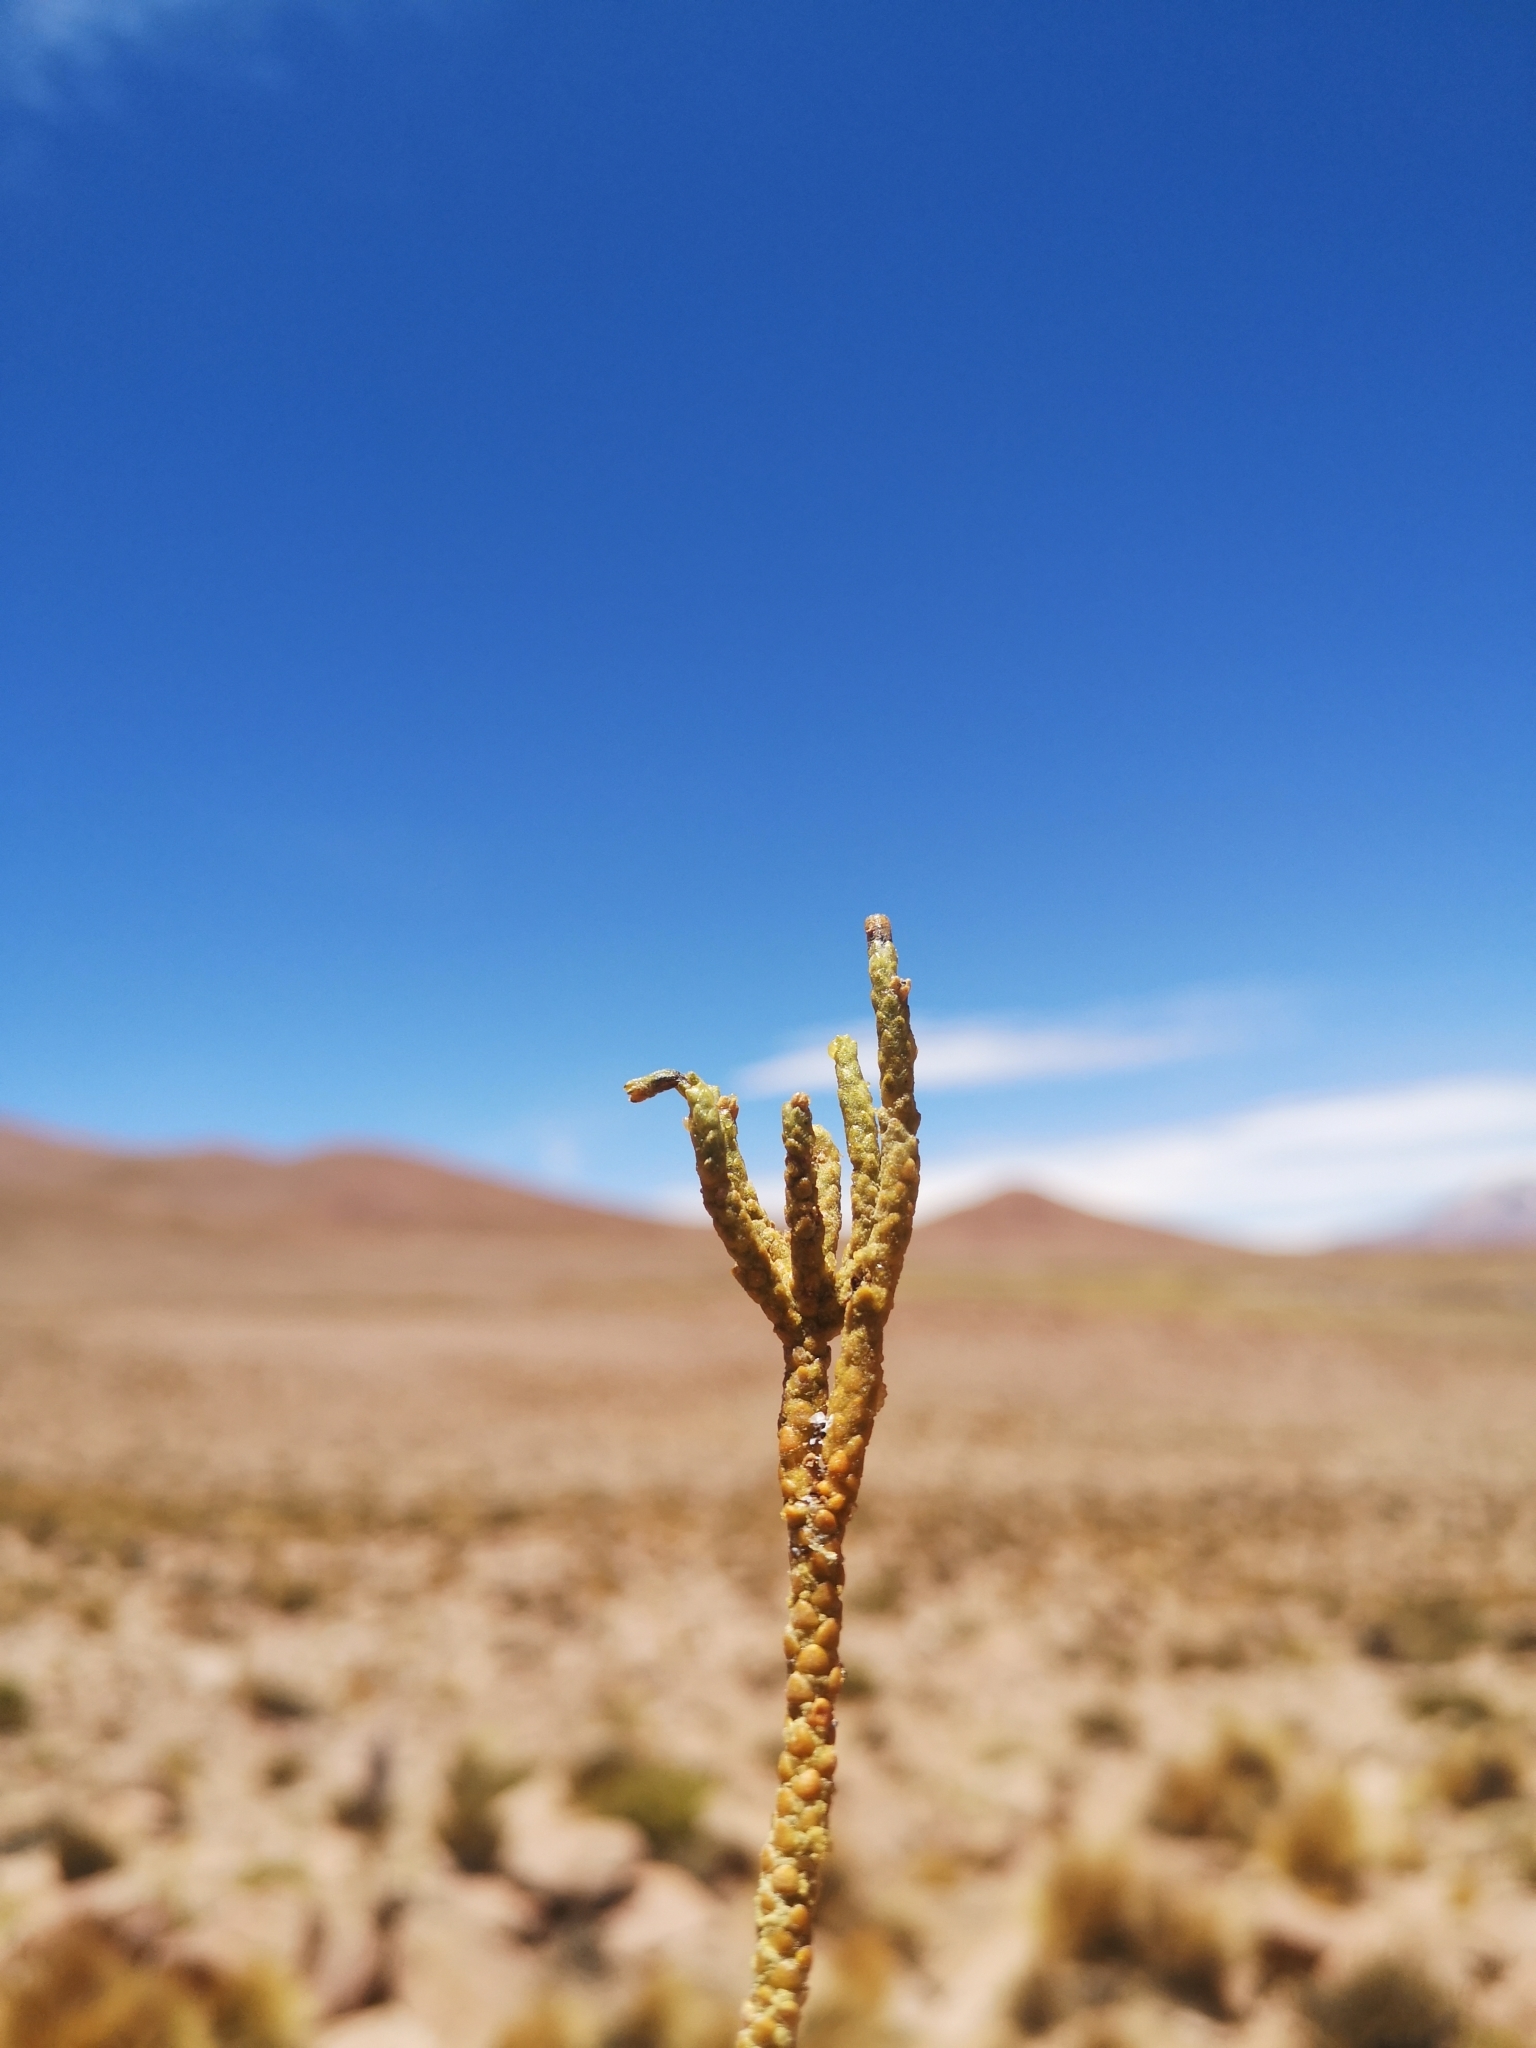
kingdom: Plantae
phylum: Tracheophyta
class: Magnoliopsida
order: Solanales
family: Solanaceae
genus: Fabiana
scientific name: Fabiana squamata
